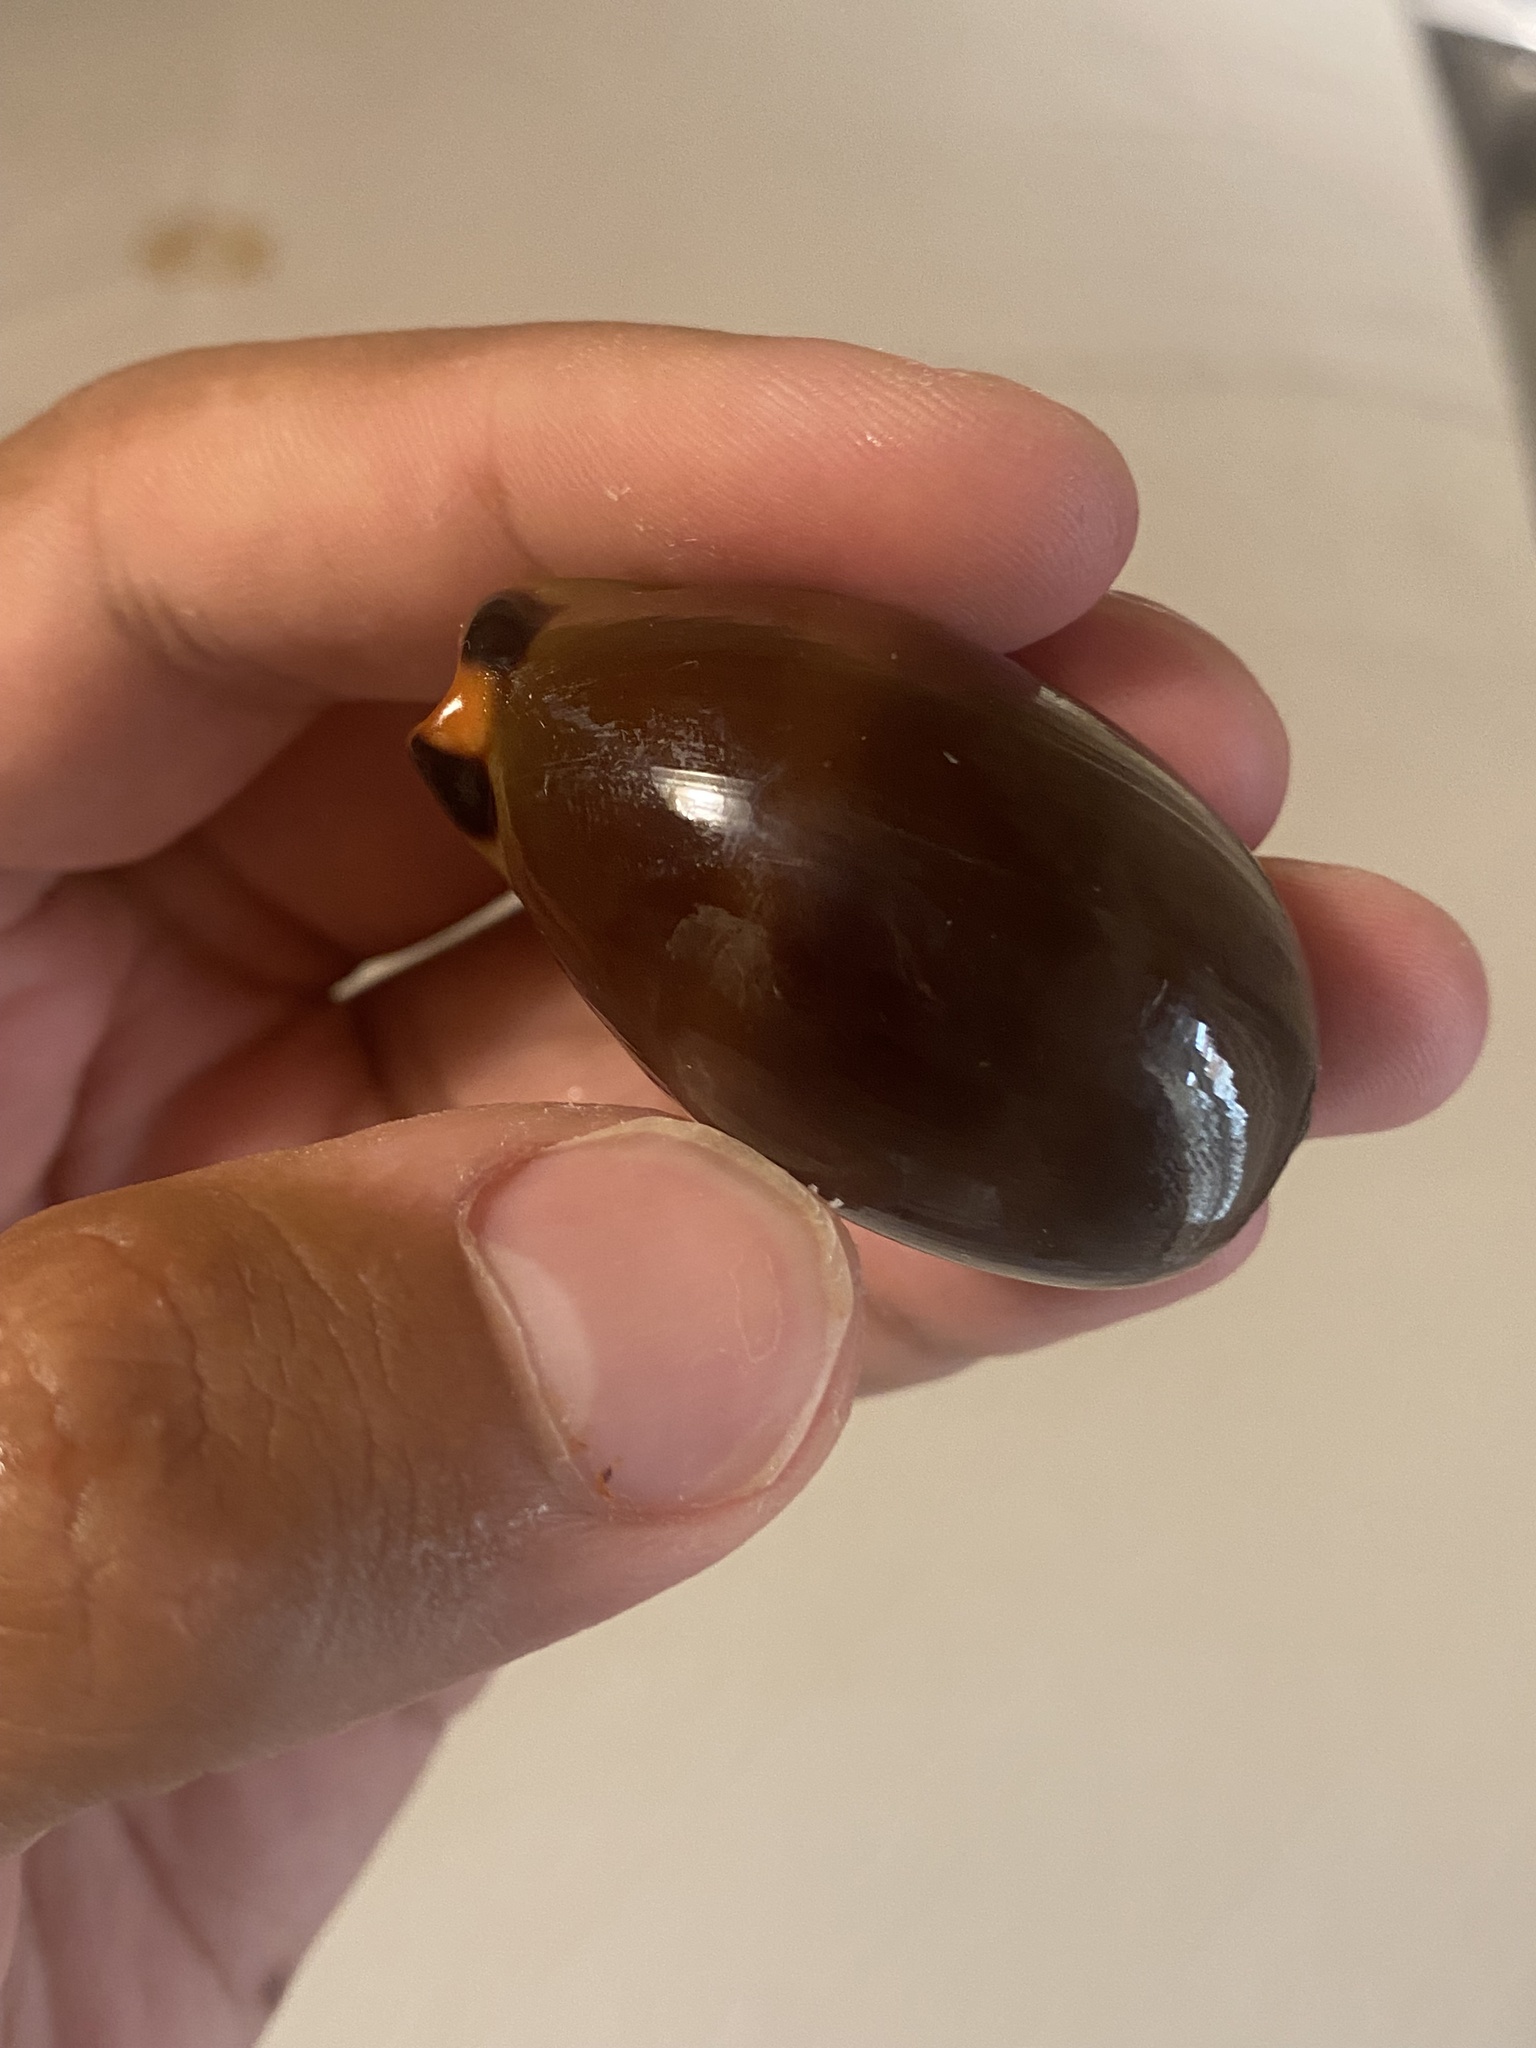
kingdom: Animalia
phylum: Mollusca
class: Gastropoda
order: Littorinimorpha
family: Cypraeidae
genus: Luria
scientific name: Luria lurida
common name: Brown cowry
